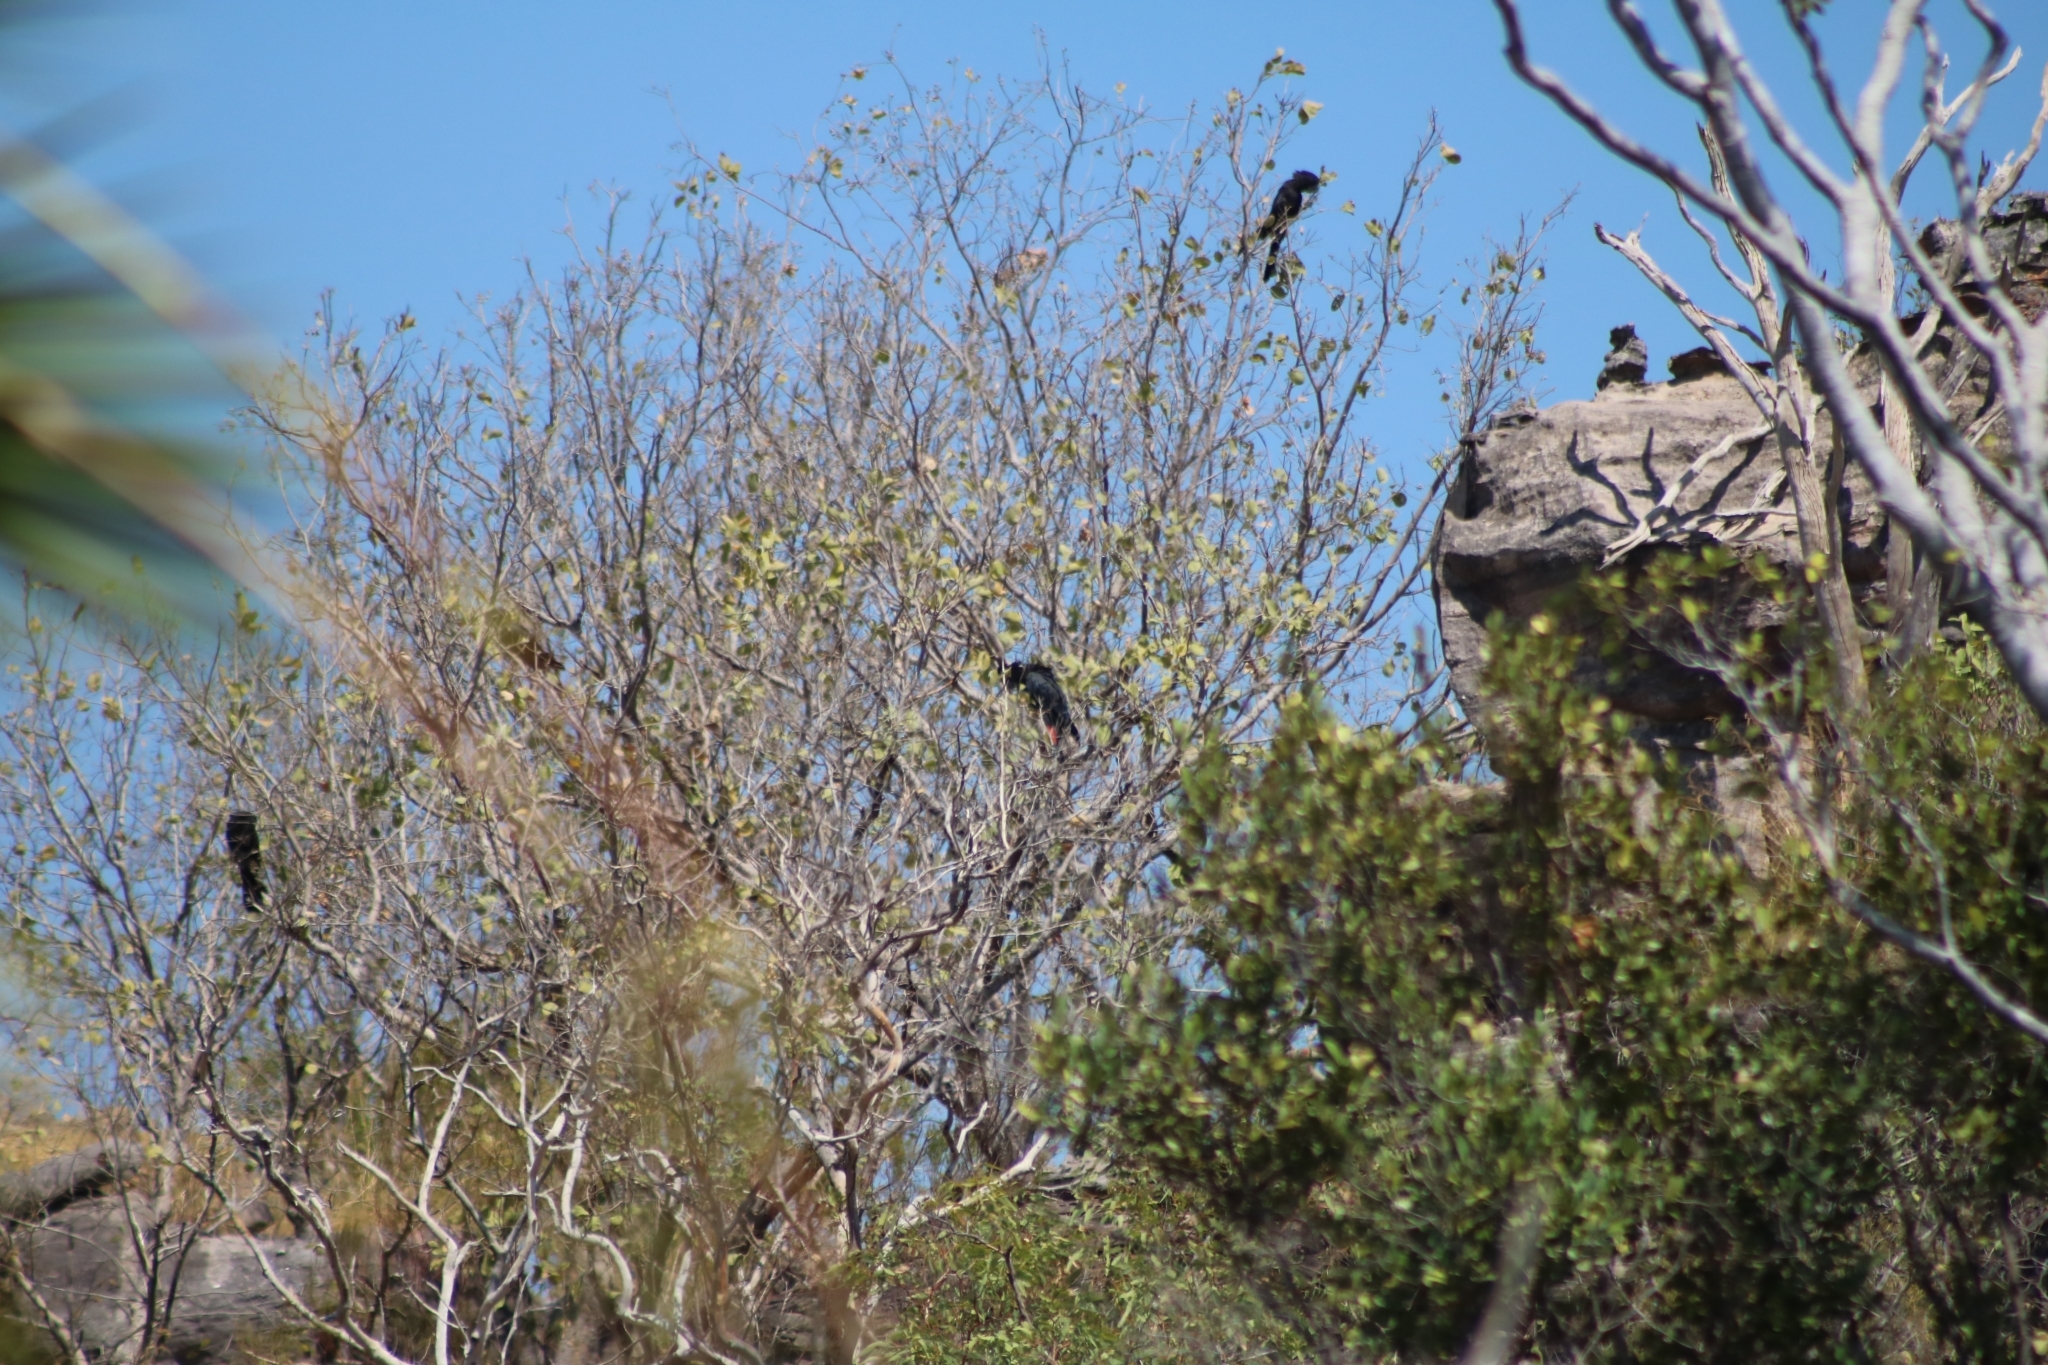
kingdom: Animalia
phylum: Chordata
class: Aves
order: Psittaciformes
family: Psittacidae
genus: Calyptorhynchus
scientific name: Calyptorhynchus banksii
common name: Red-tailed black cockatoo
